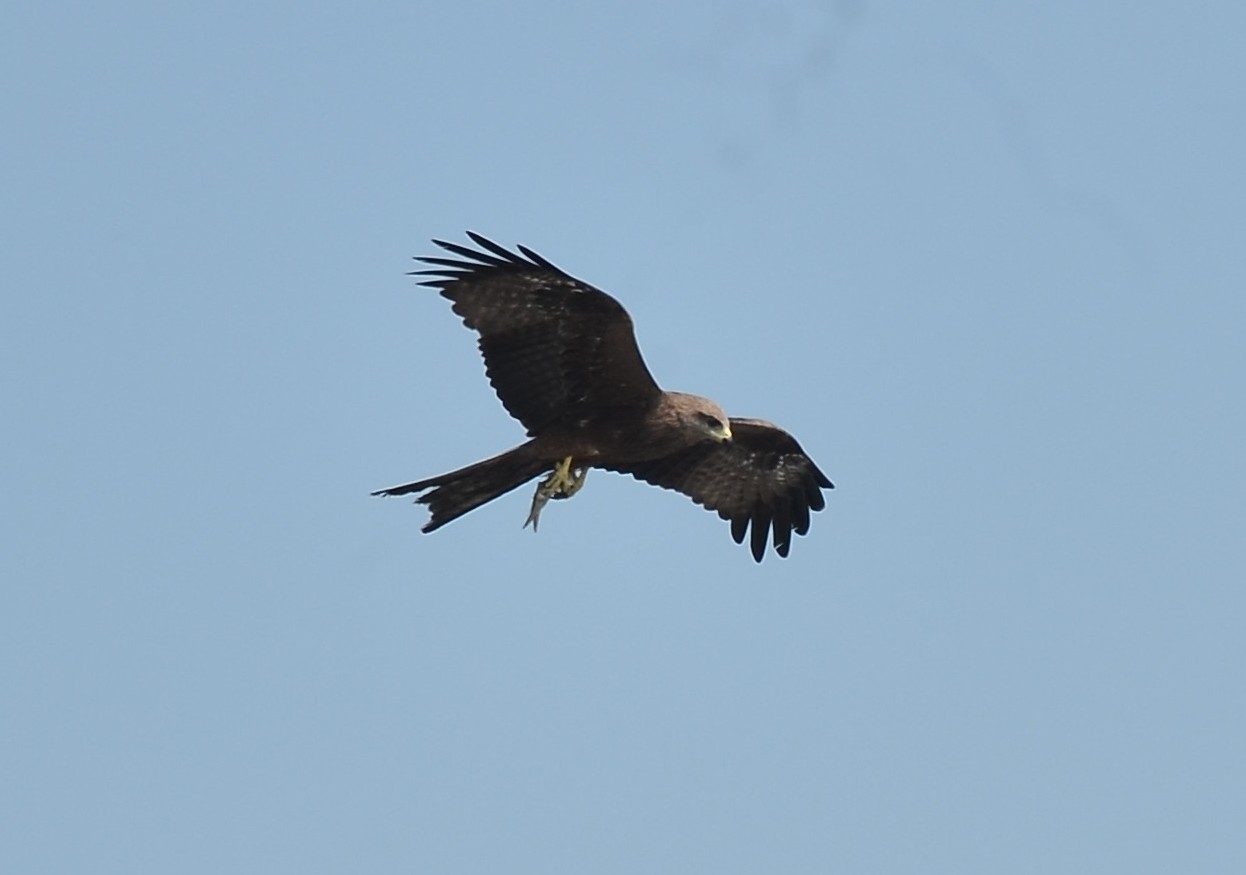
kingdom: Animalia
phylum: Chordata
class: Aves
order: Accipitriformes
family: Accipitridae
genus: Milvus
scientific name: Milvus migrans
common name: Black kite
